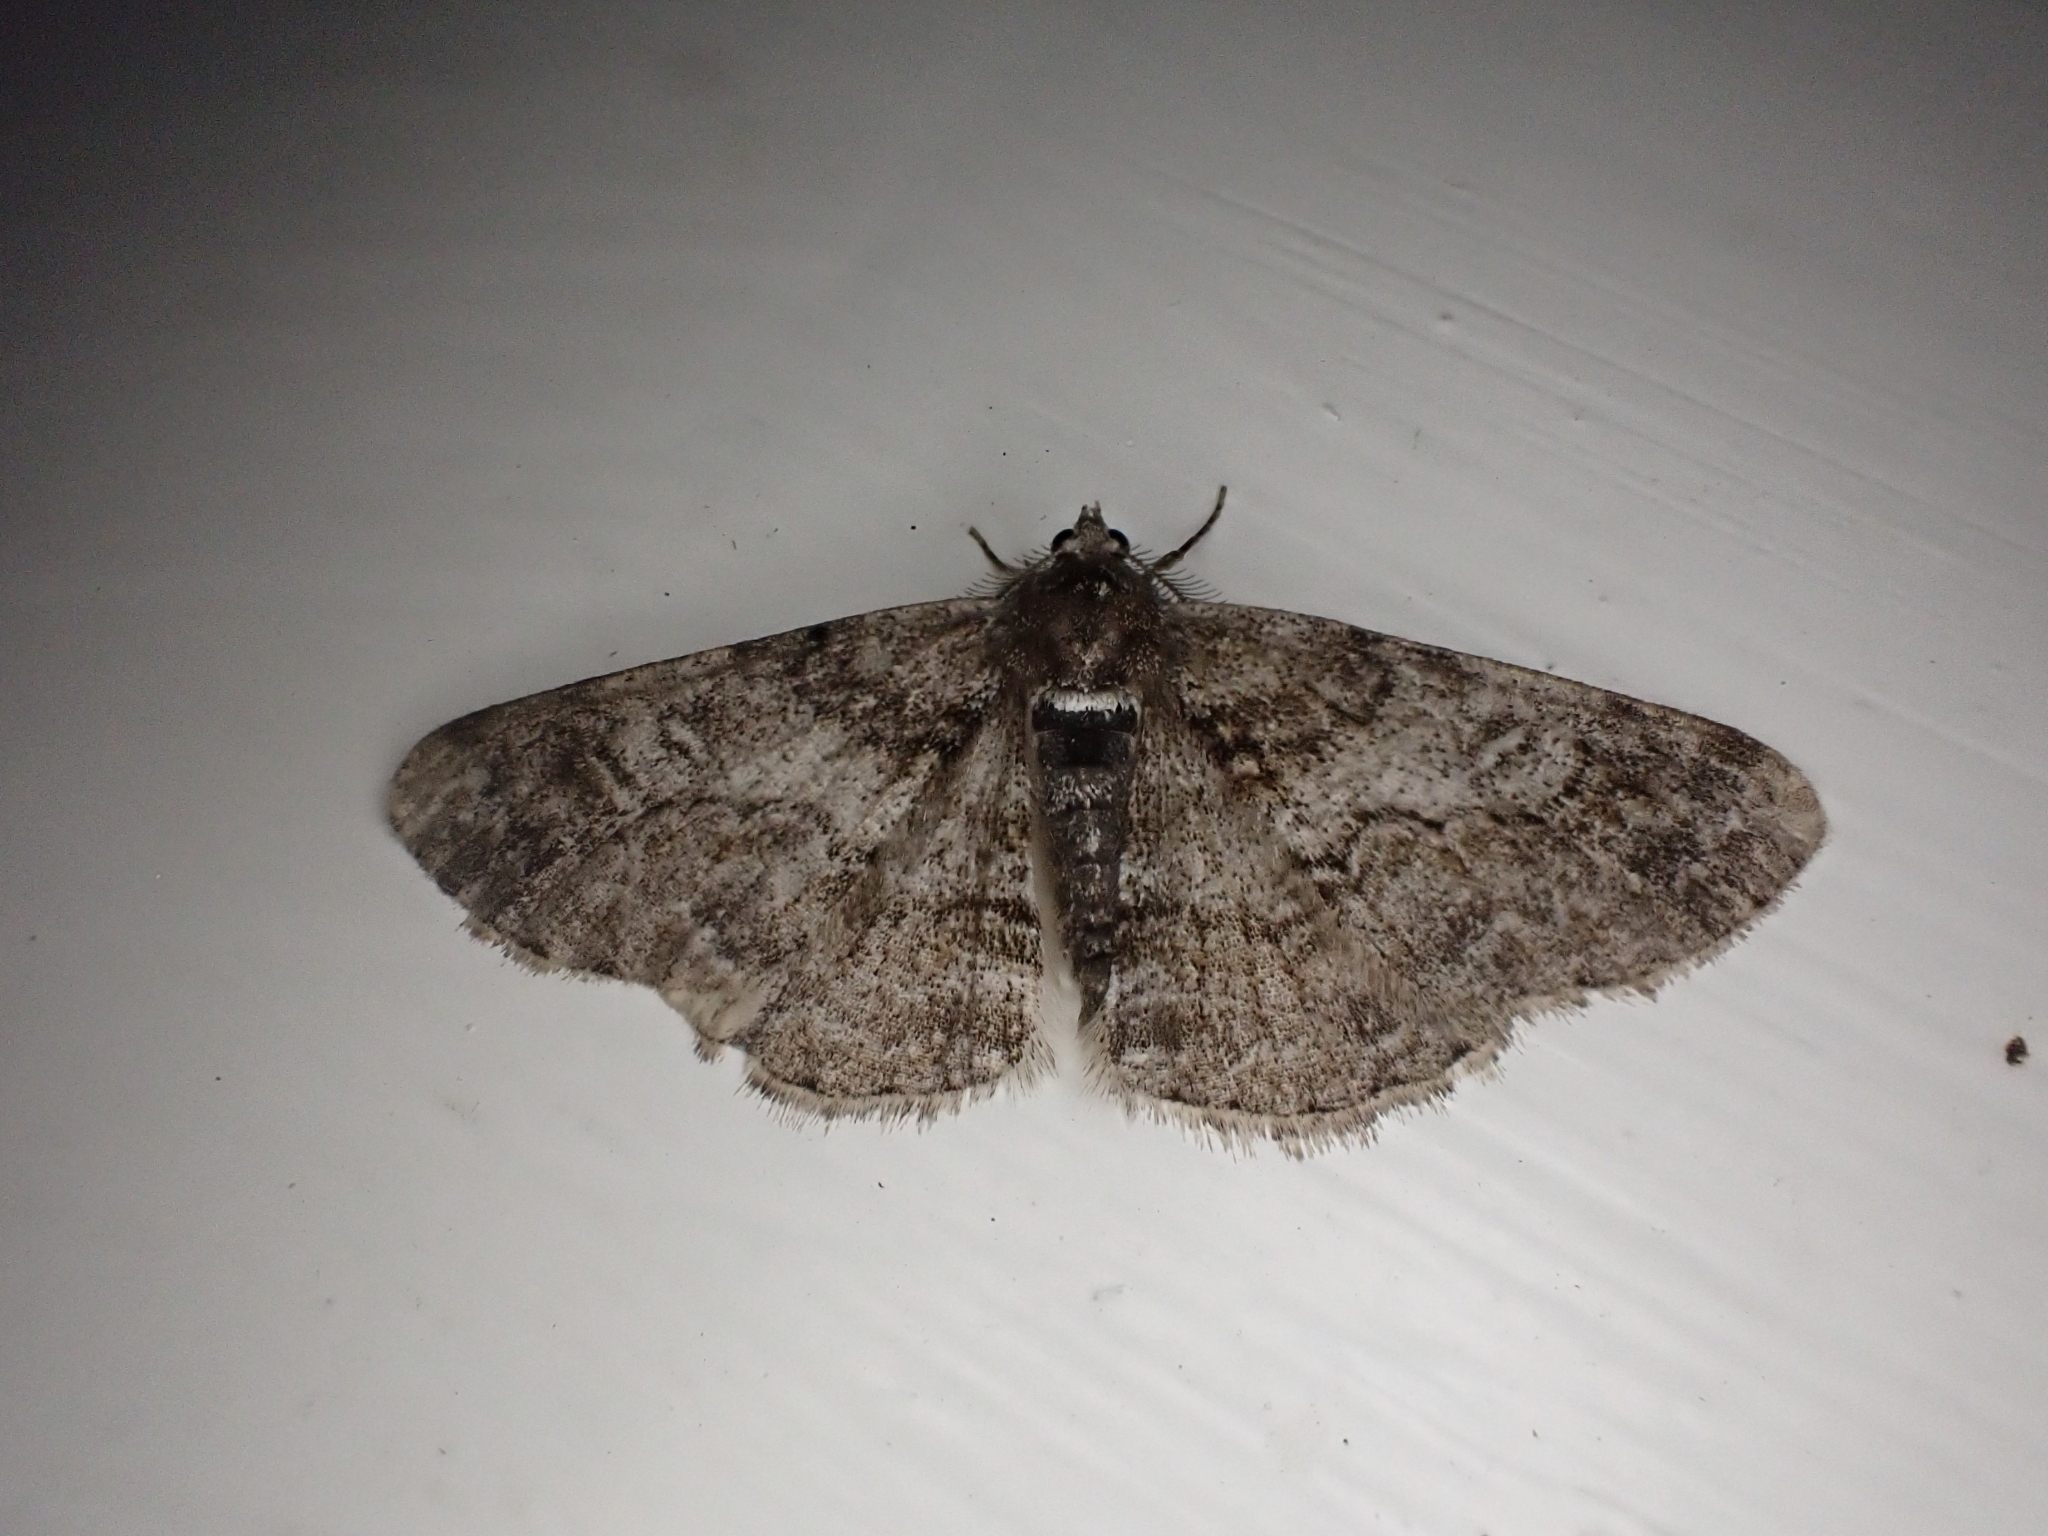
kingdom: Animalia
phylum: Arthropoda
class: Insecta
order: Lepidoptera
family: Geometridae
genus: Cleora
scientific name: Cleora cinctaria
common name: Ringed carpet
